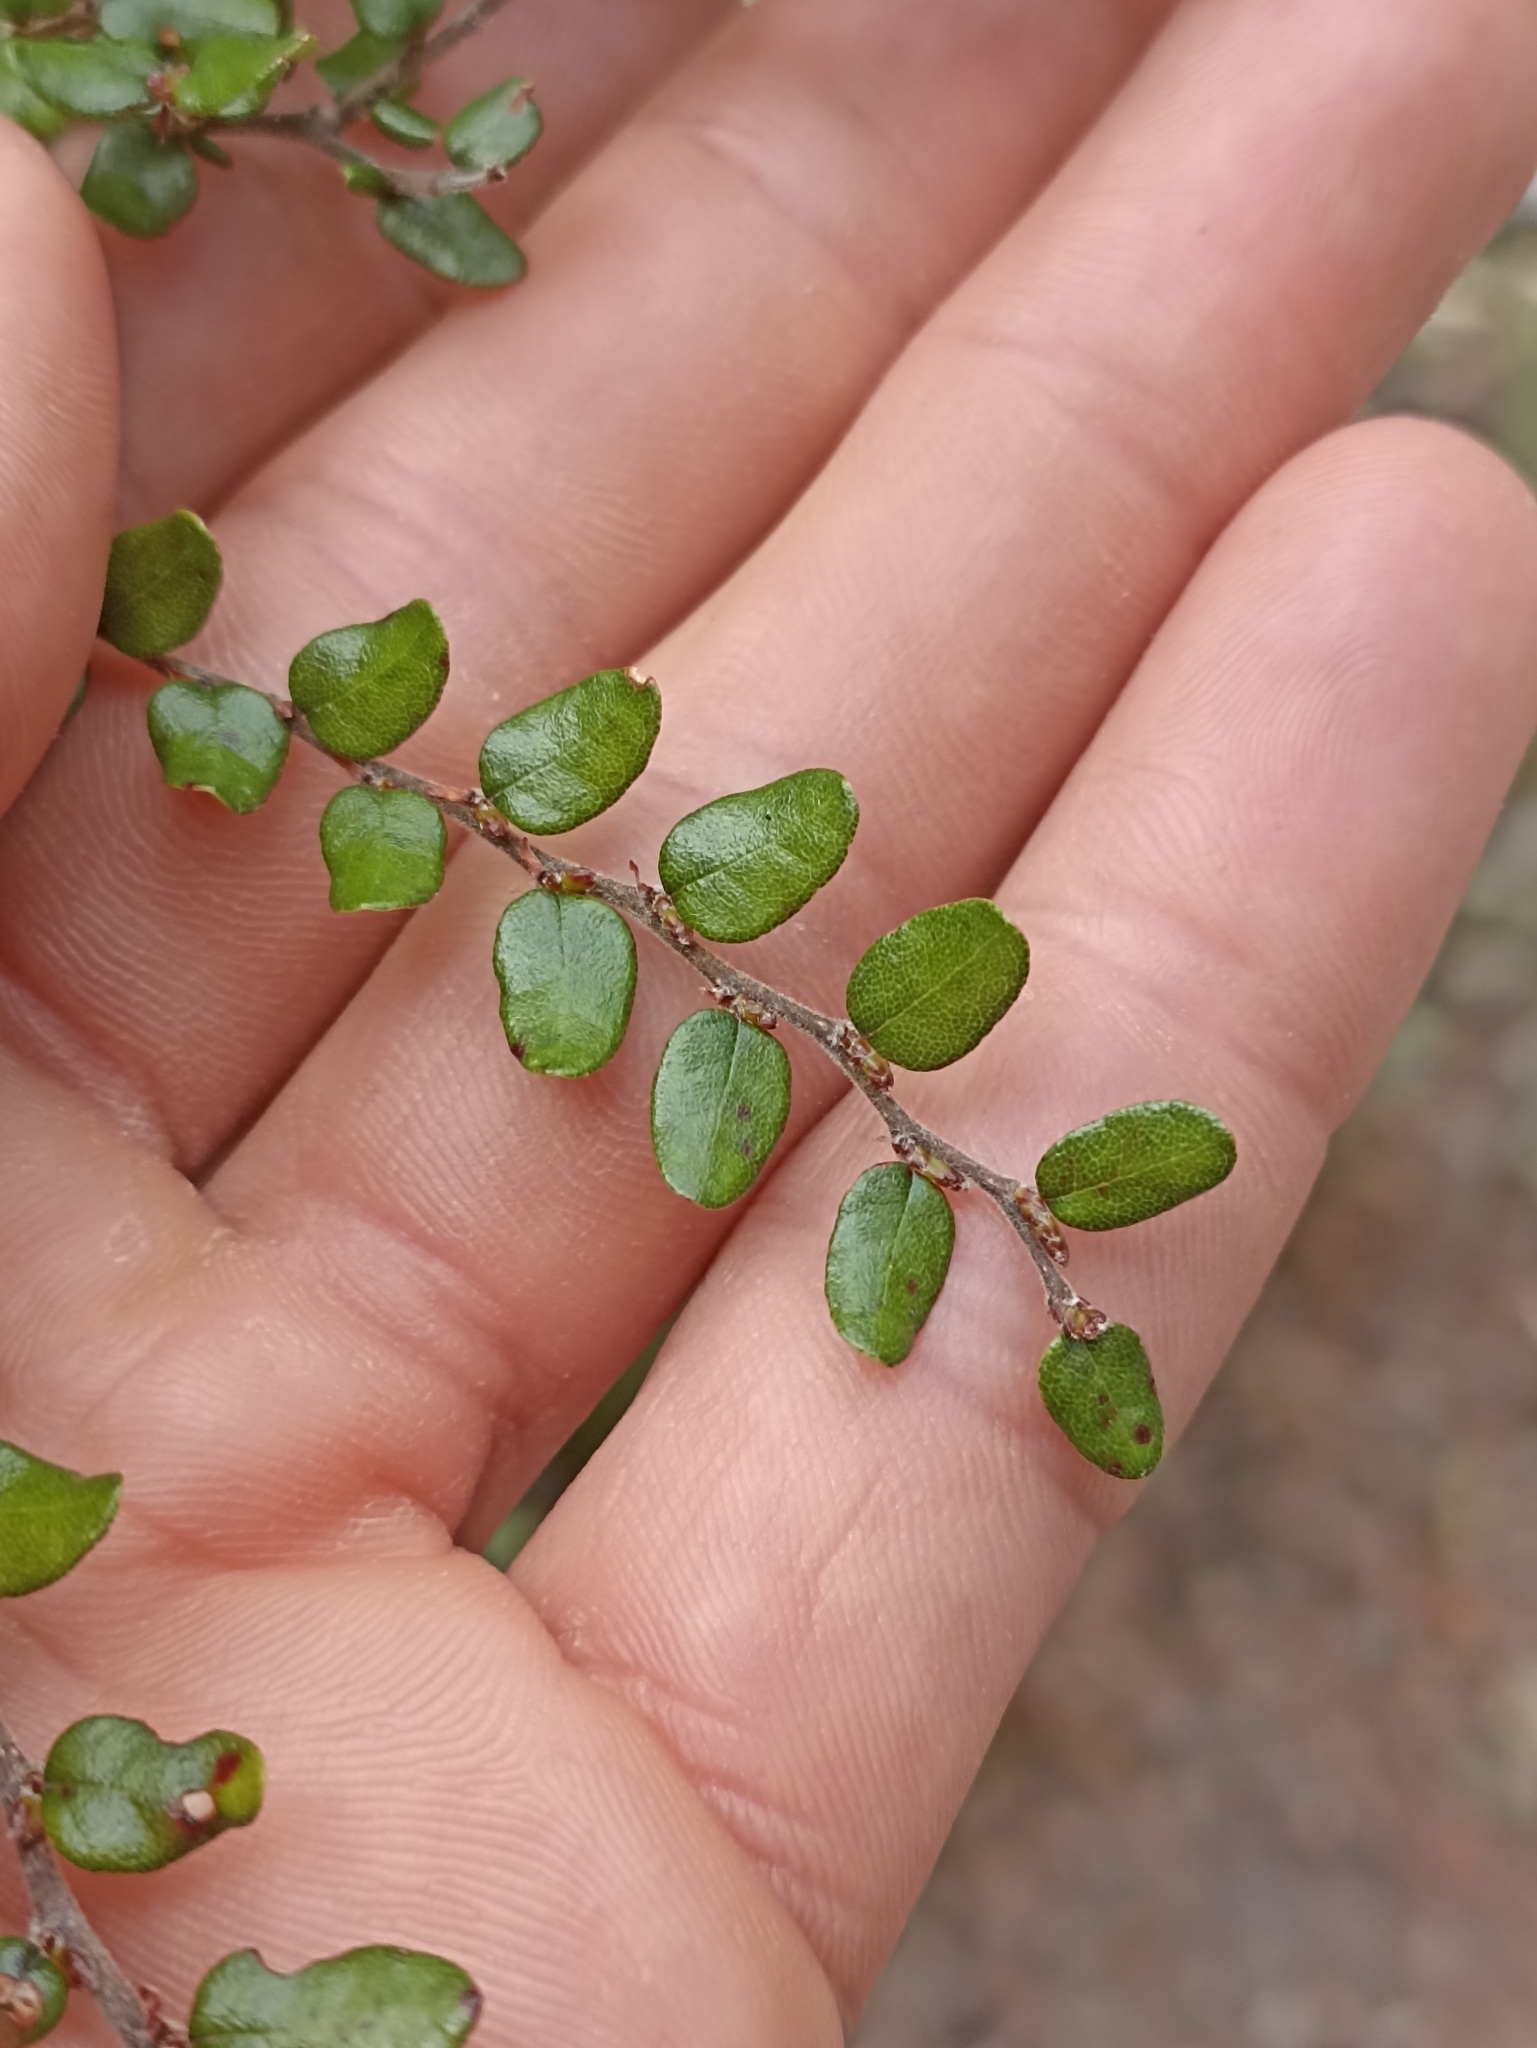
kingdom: Plantae
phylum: Tracheophyta
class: Magnoliopsida
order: Fagales
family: Nothofagaceae
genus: Nothofagus
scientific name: Nothofagus cliffortioides
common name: Mountain beech
